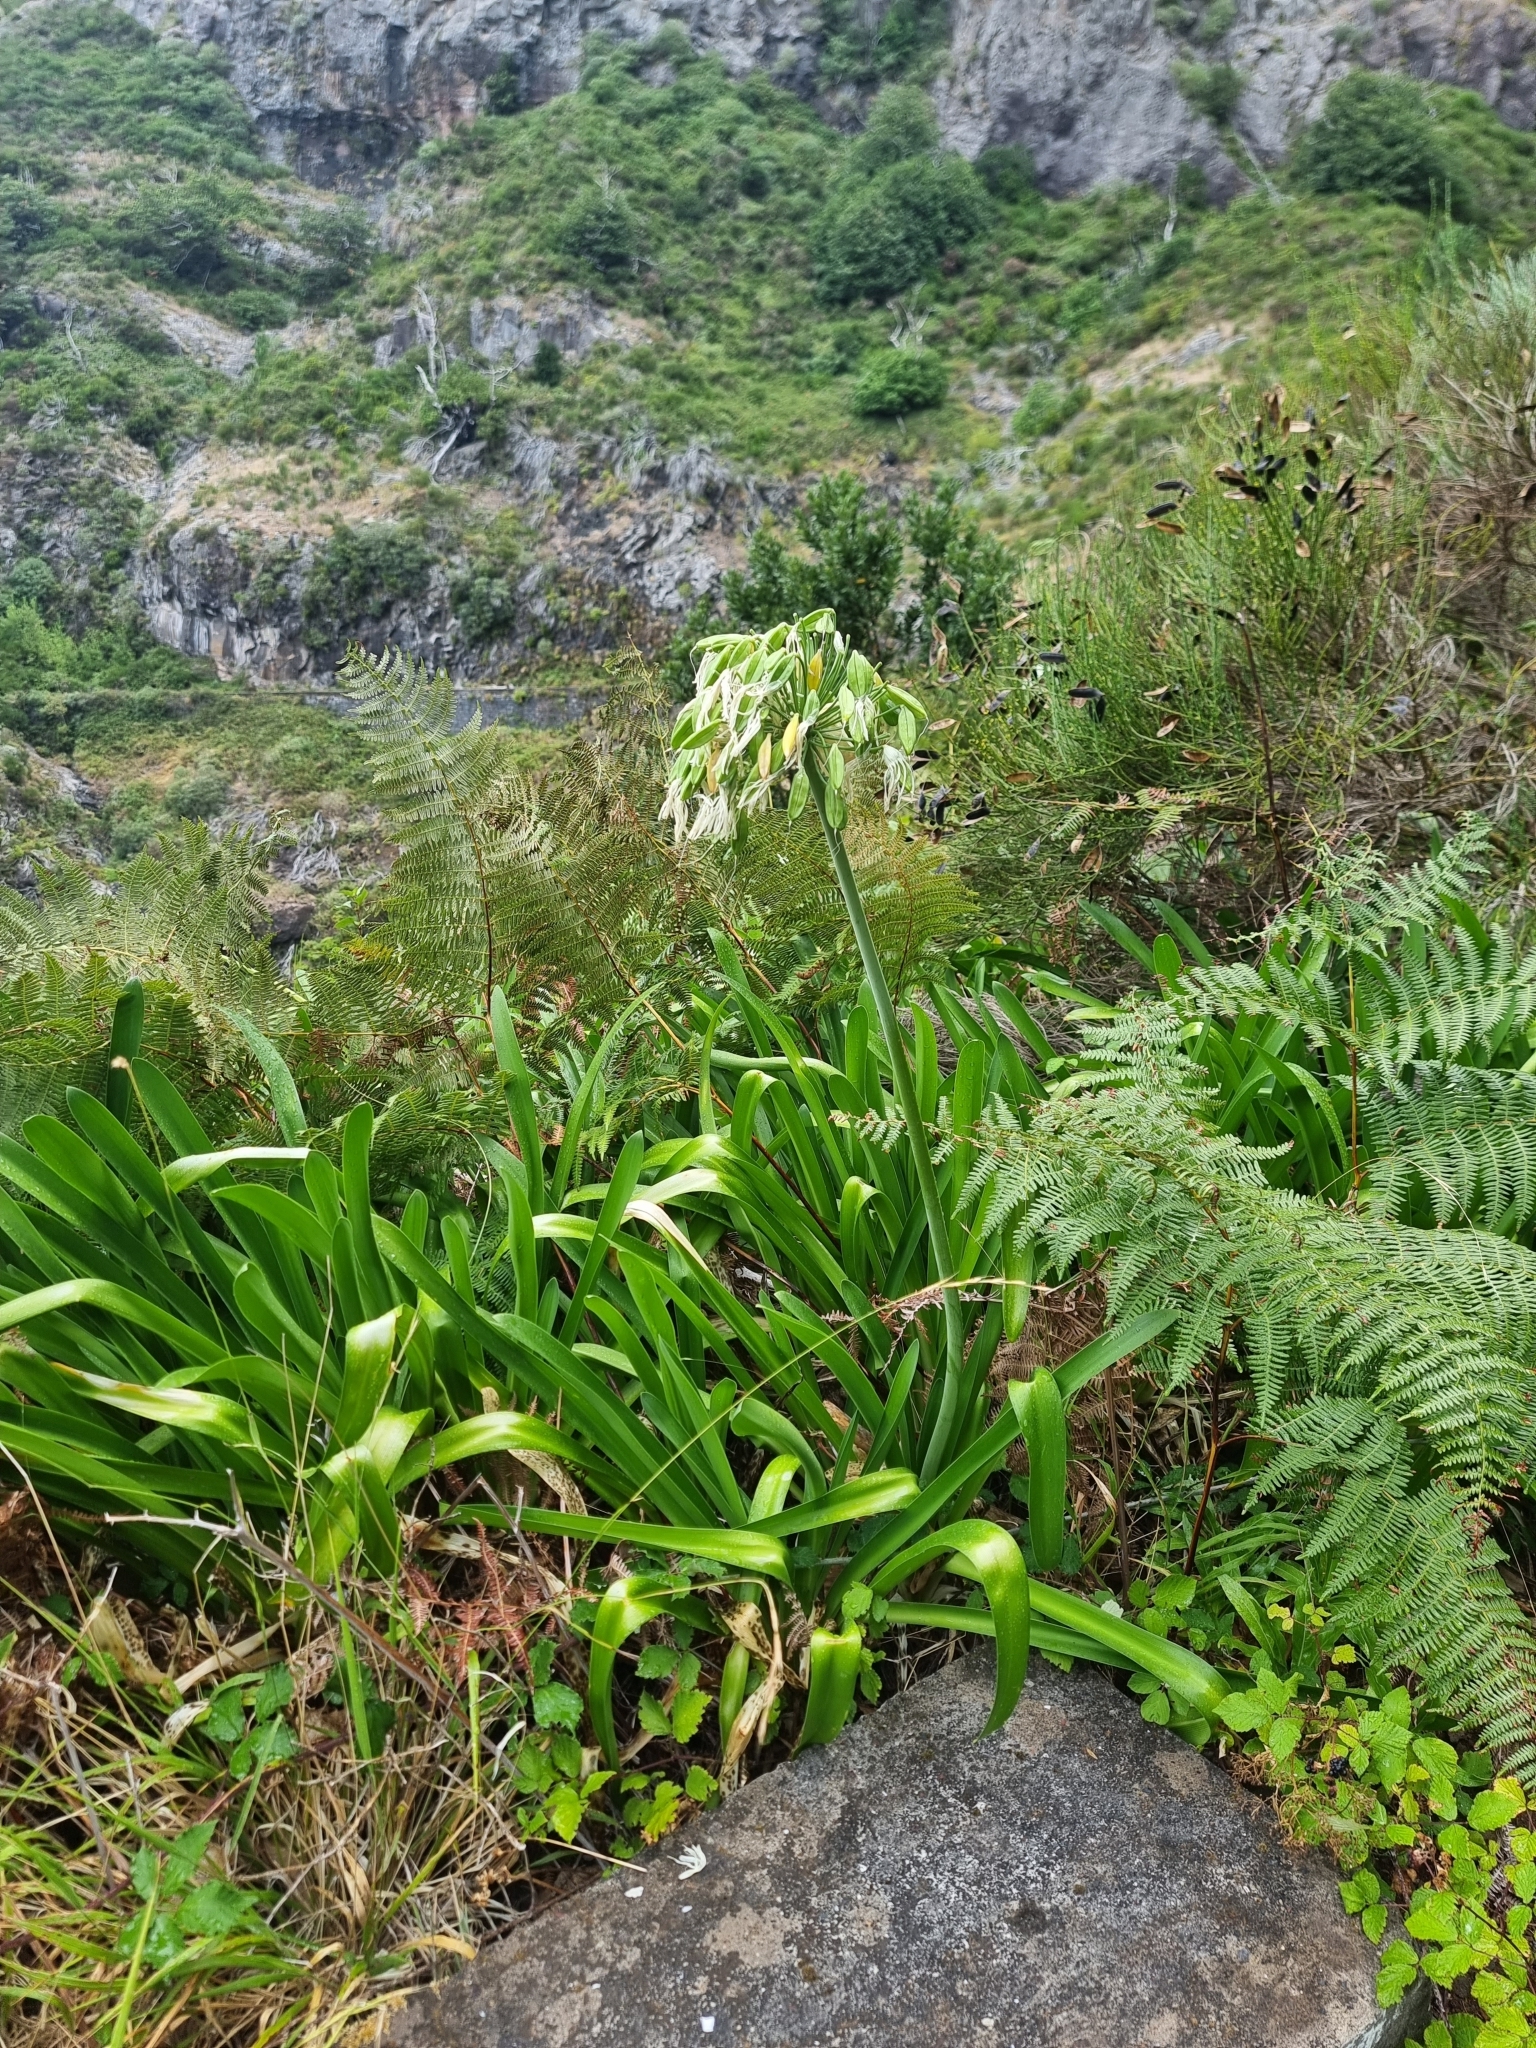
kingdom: Plantae
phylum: Tracheophyta
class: Liliopsida
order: Asparagales
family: Amaryllidaceae
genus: Agapanthus
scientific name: Agapanthus praecox
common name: African-lily
